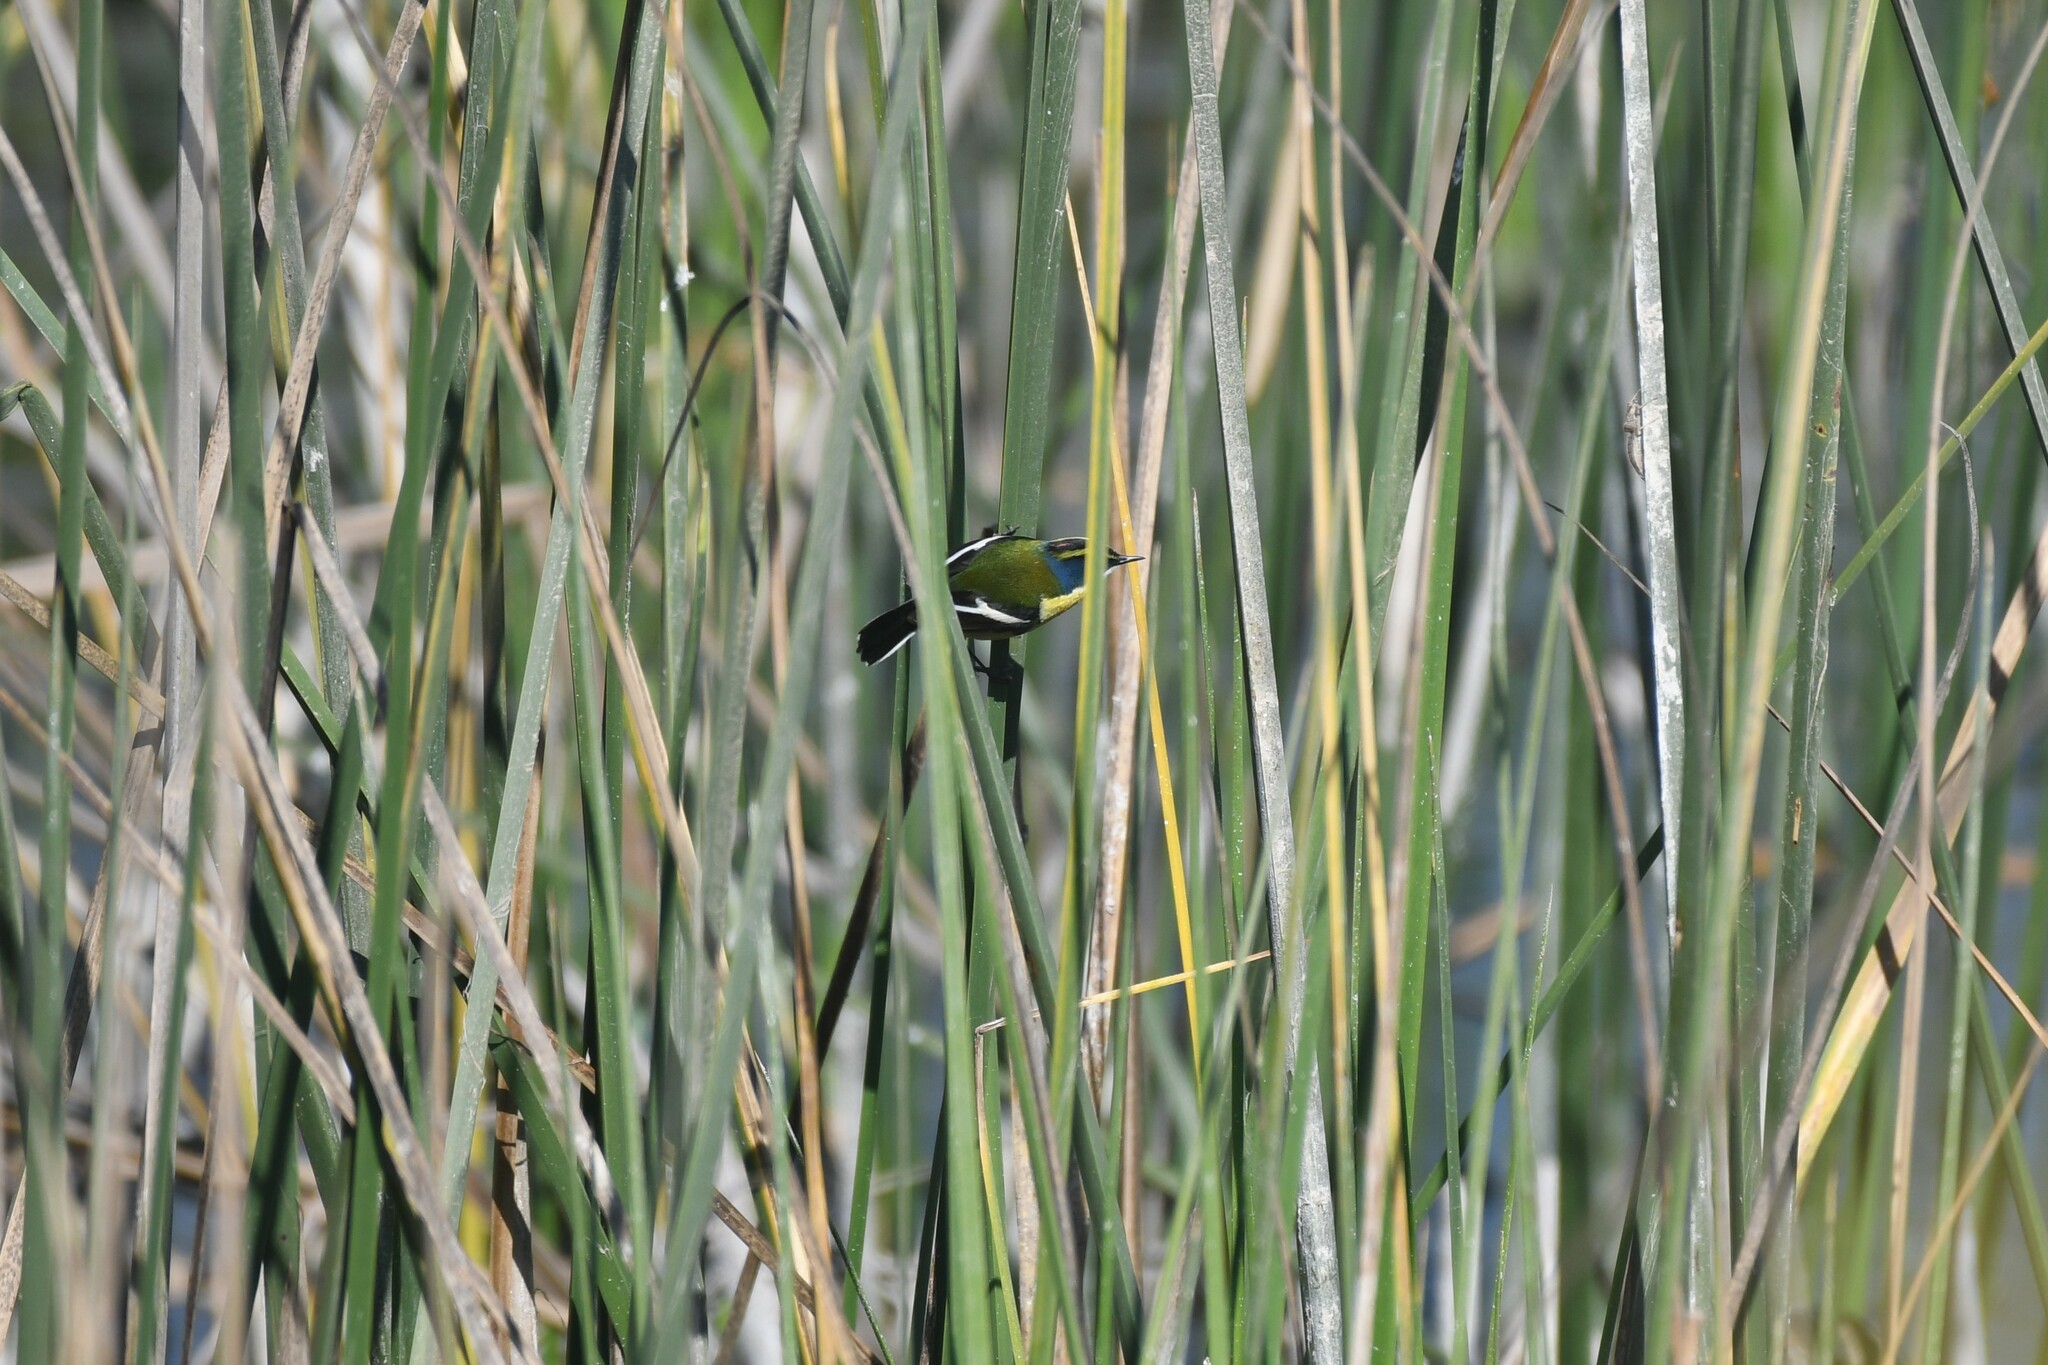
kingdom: Animalia
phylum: Chordata
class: Aves
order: Passeriformes
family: Tyrannidae
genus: Tachuris
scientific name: Tachuris rubrigastra
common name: Many-colored rush tyrant
